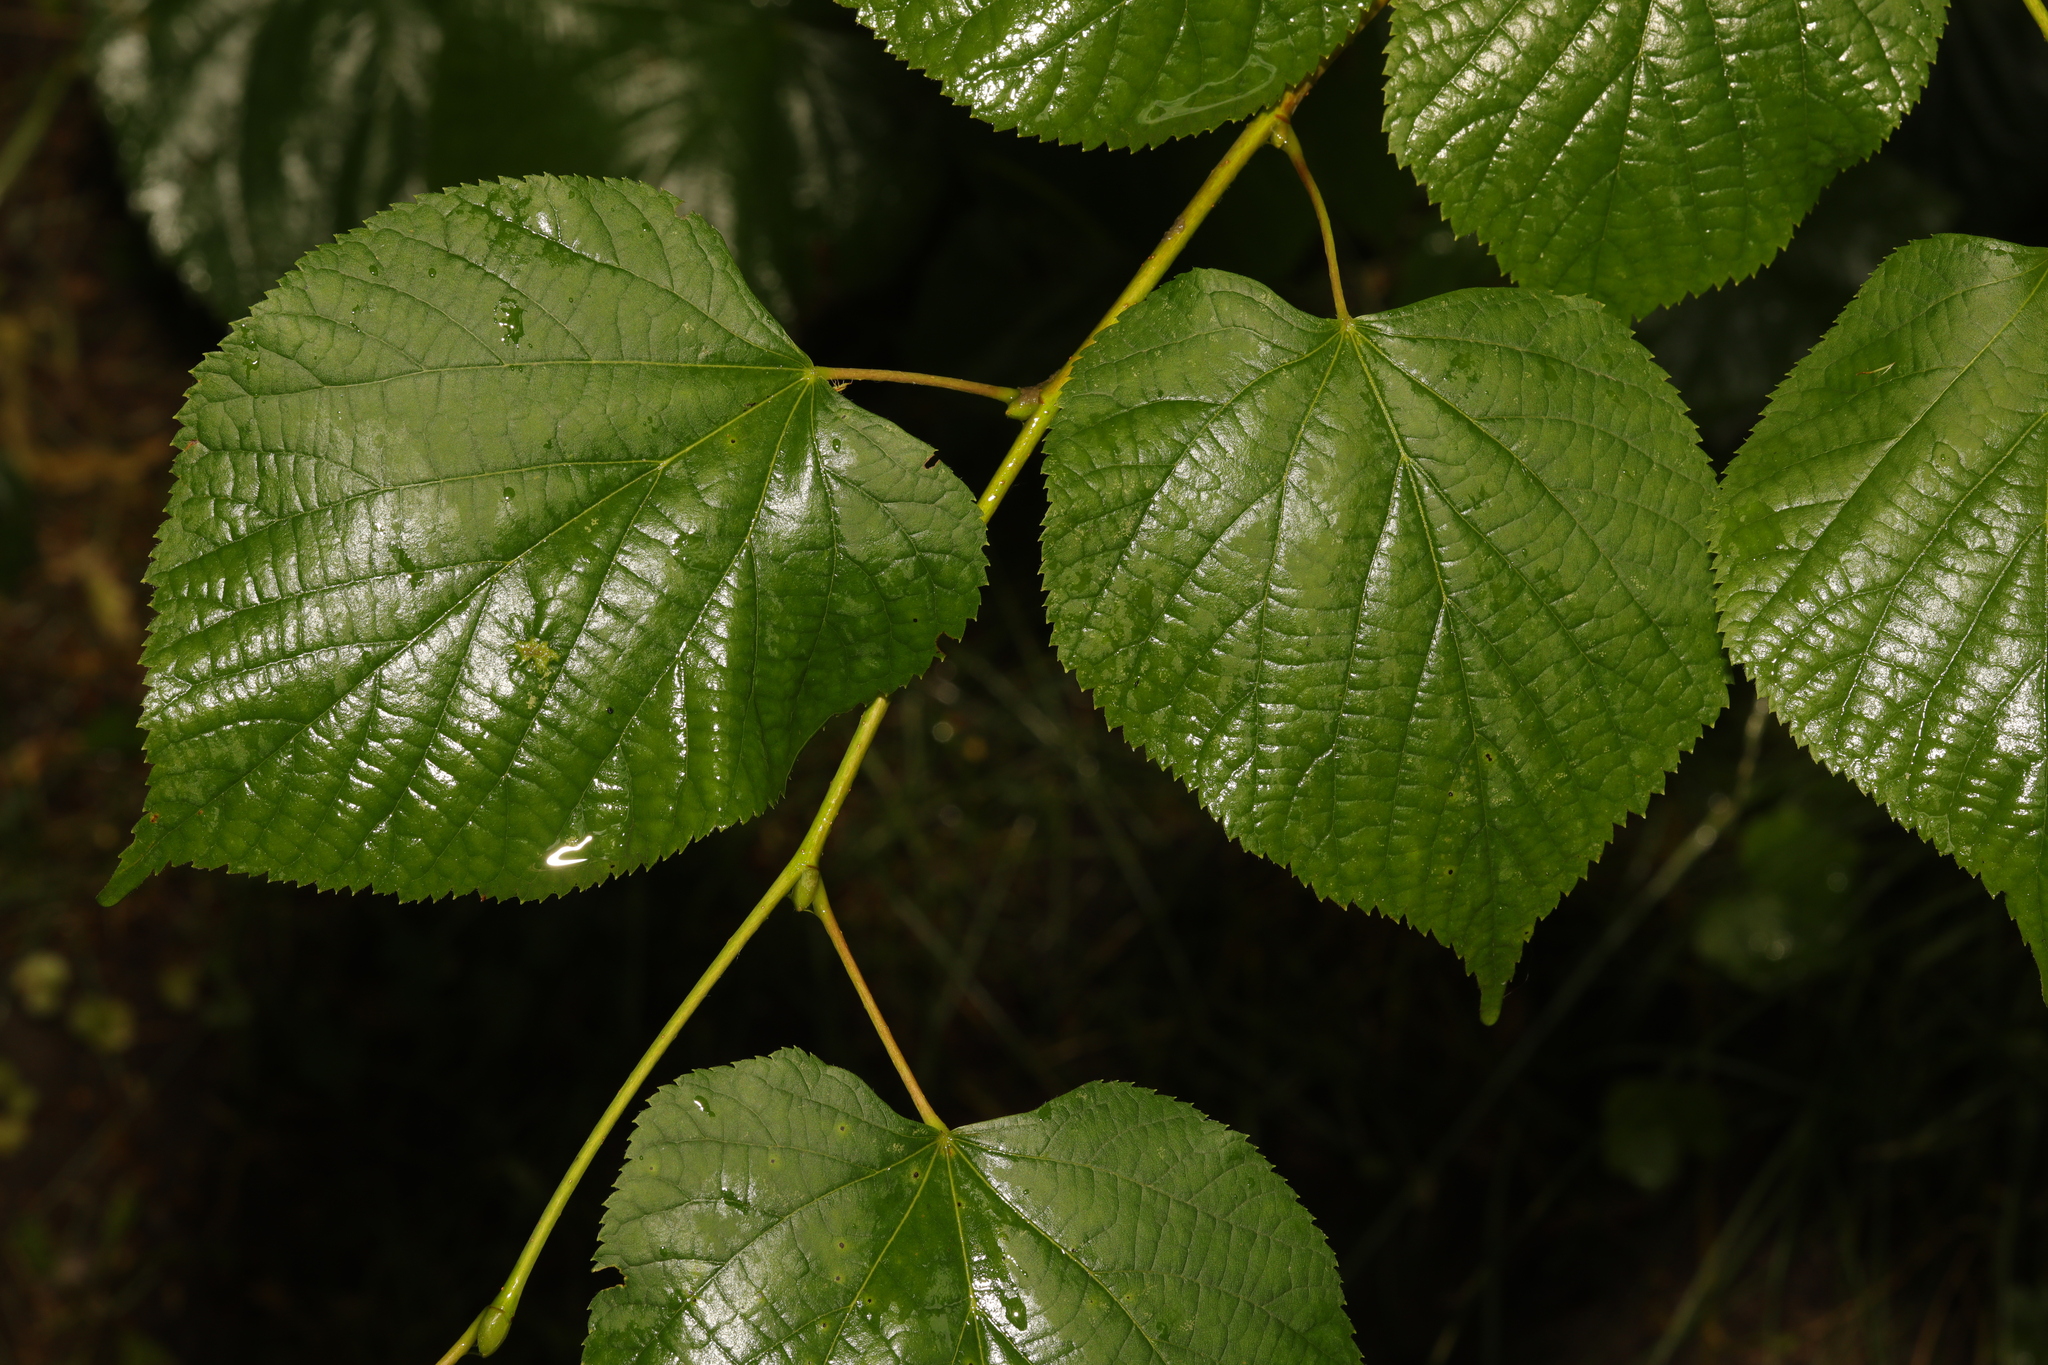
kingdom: Plantae
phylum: Tracheophyta
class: Magnoliopsida
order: Malvales
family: Malvaceae
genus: Tilia
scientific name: Tilia europaea
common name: European linden
